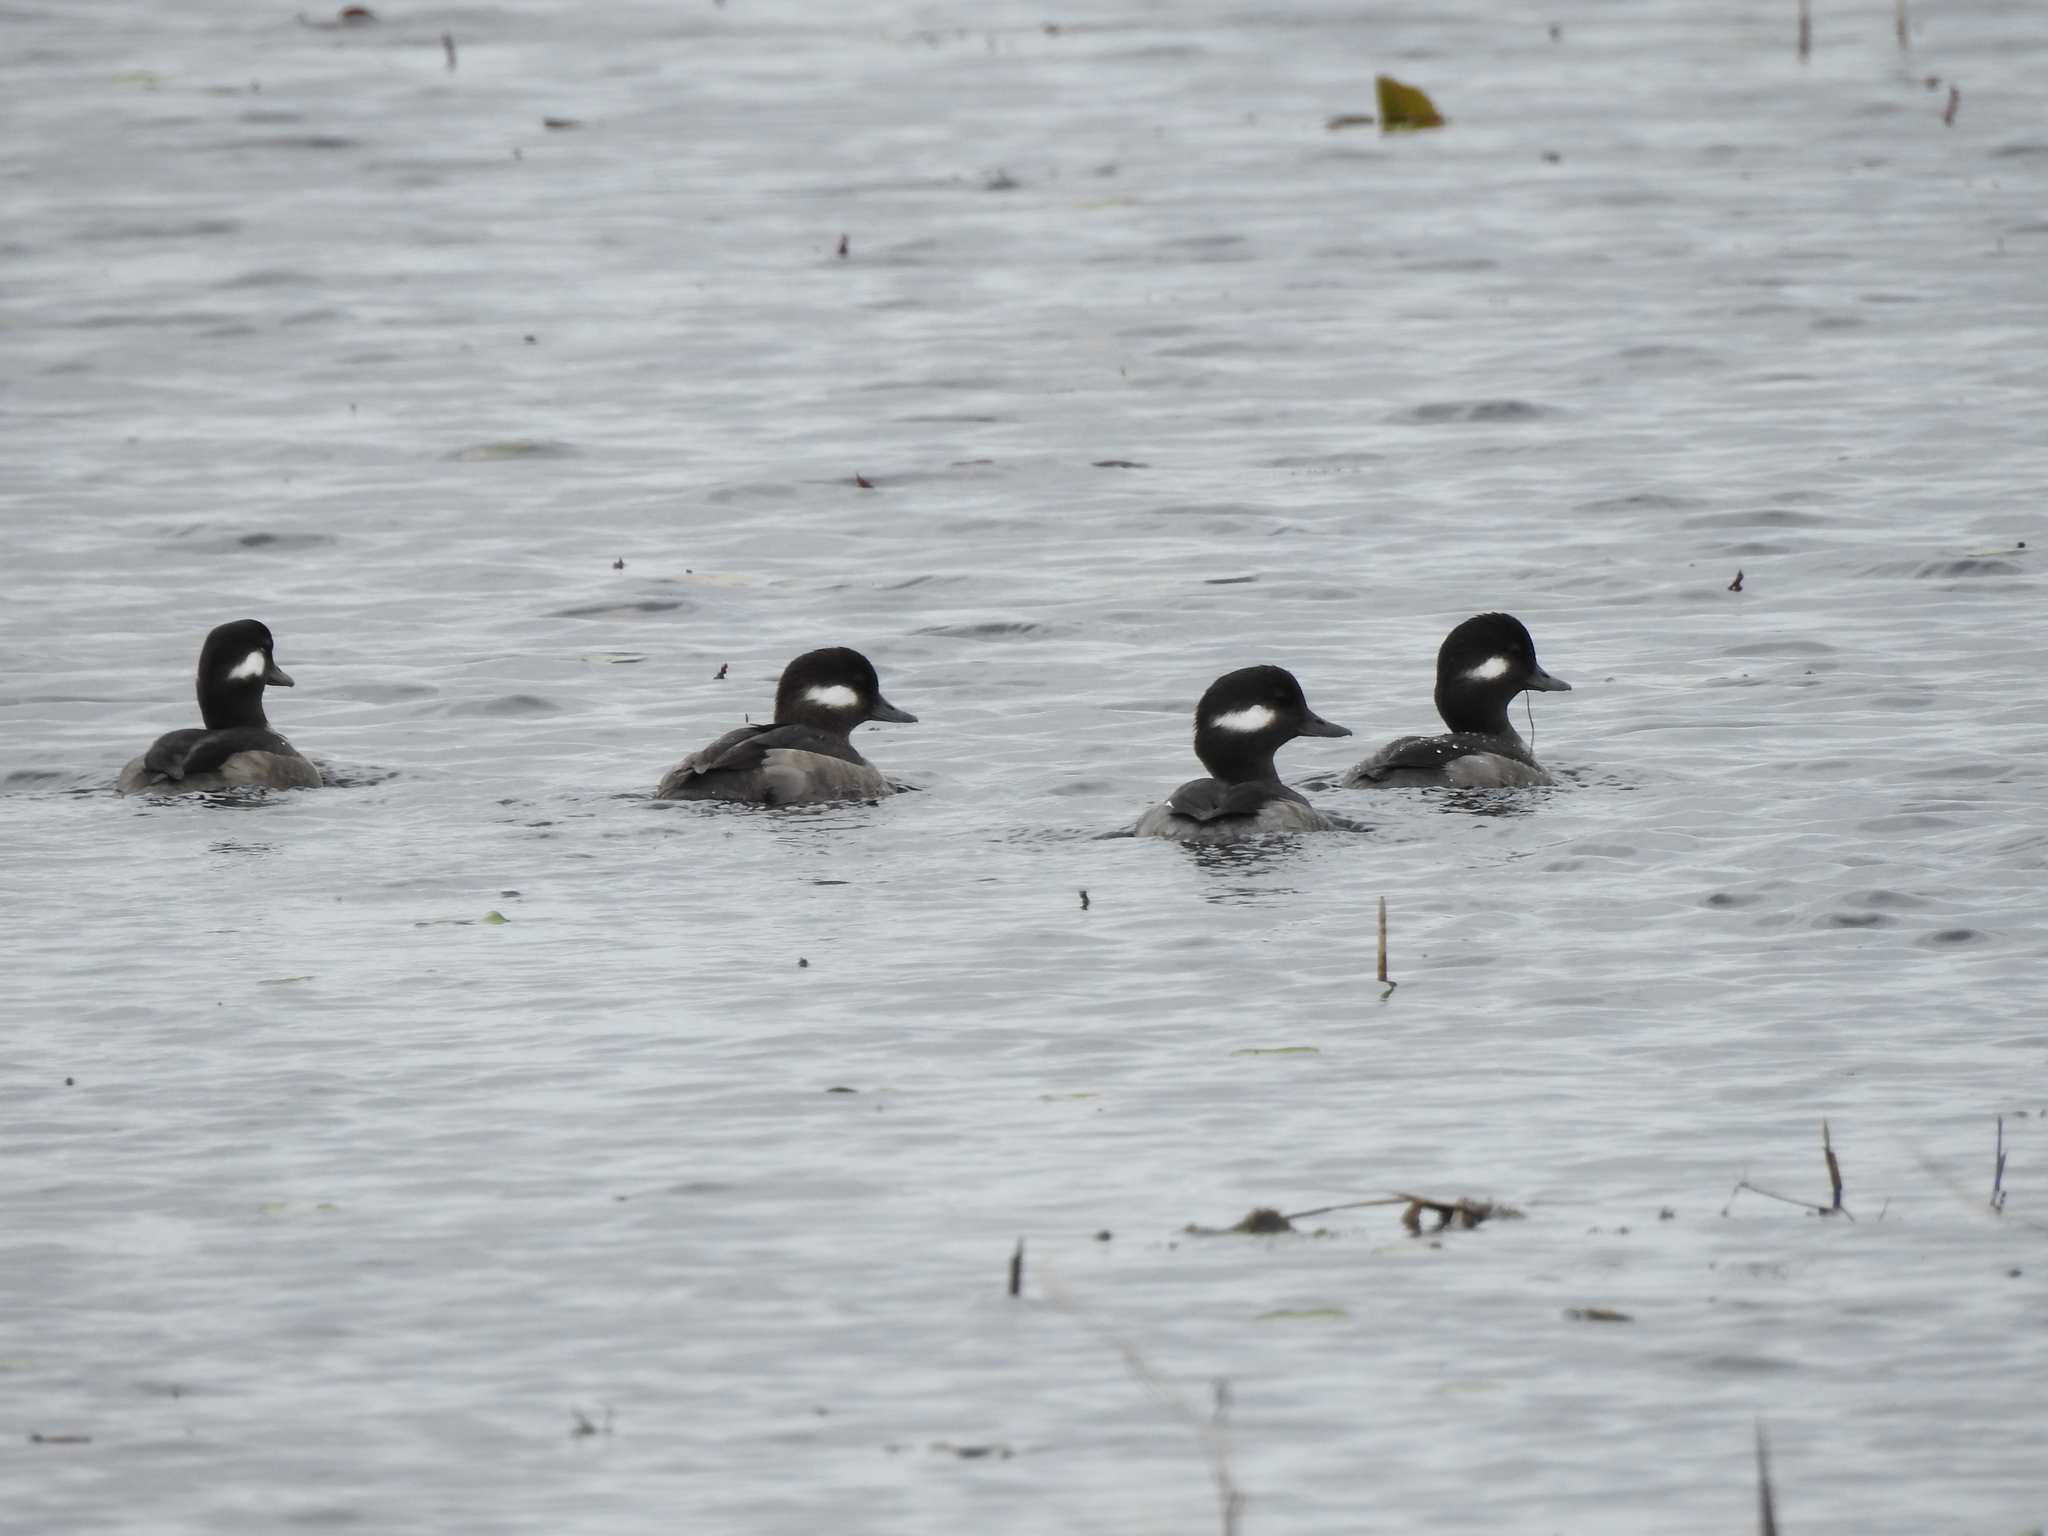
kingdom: Animalia
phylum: Chordata
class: Aves
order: Anseriformes
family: Anatidae
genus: Bucephala
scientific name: Bucephala albeola
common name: Bufflehead
